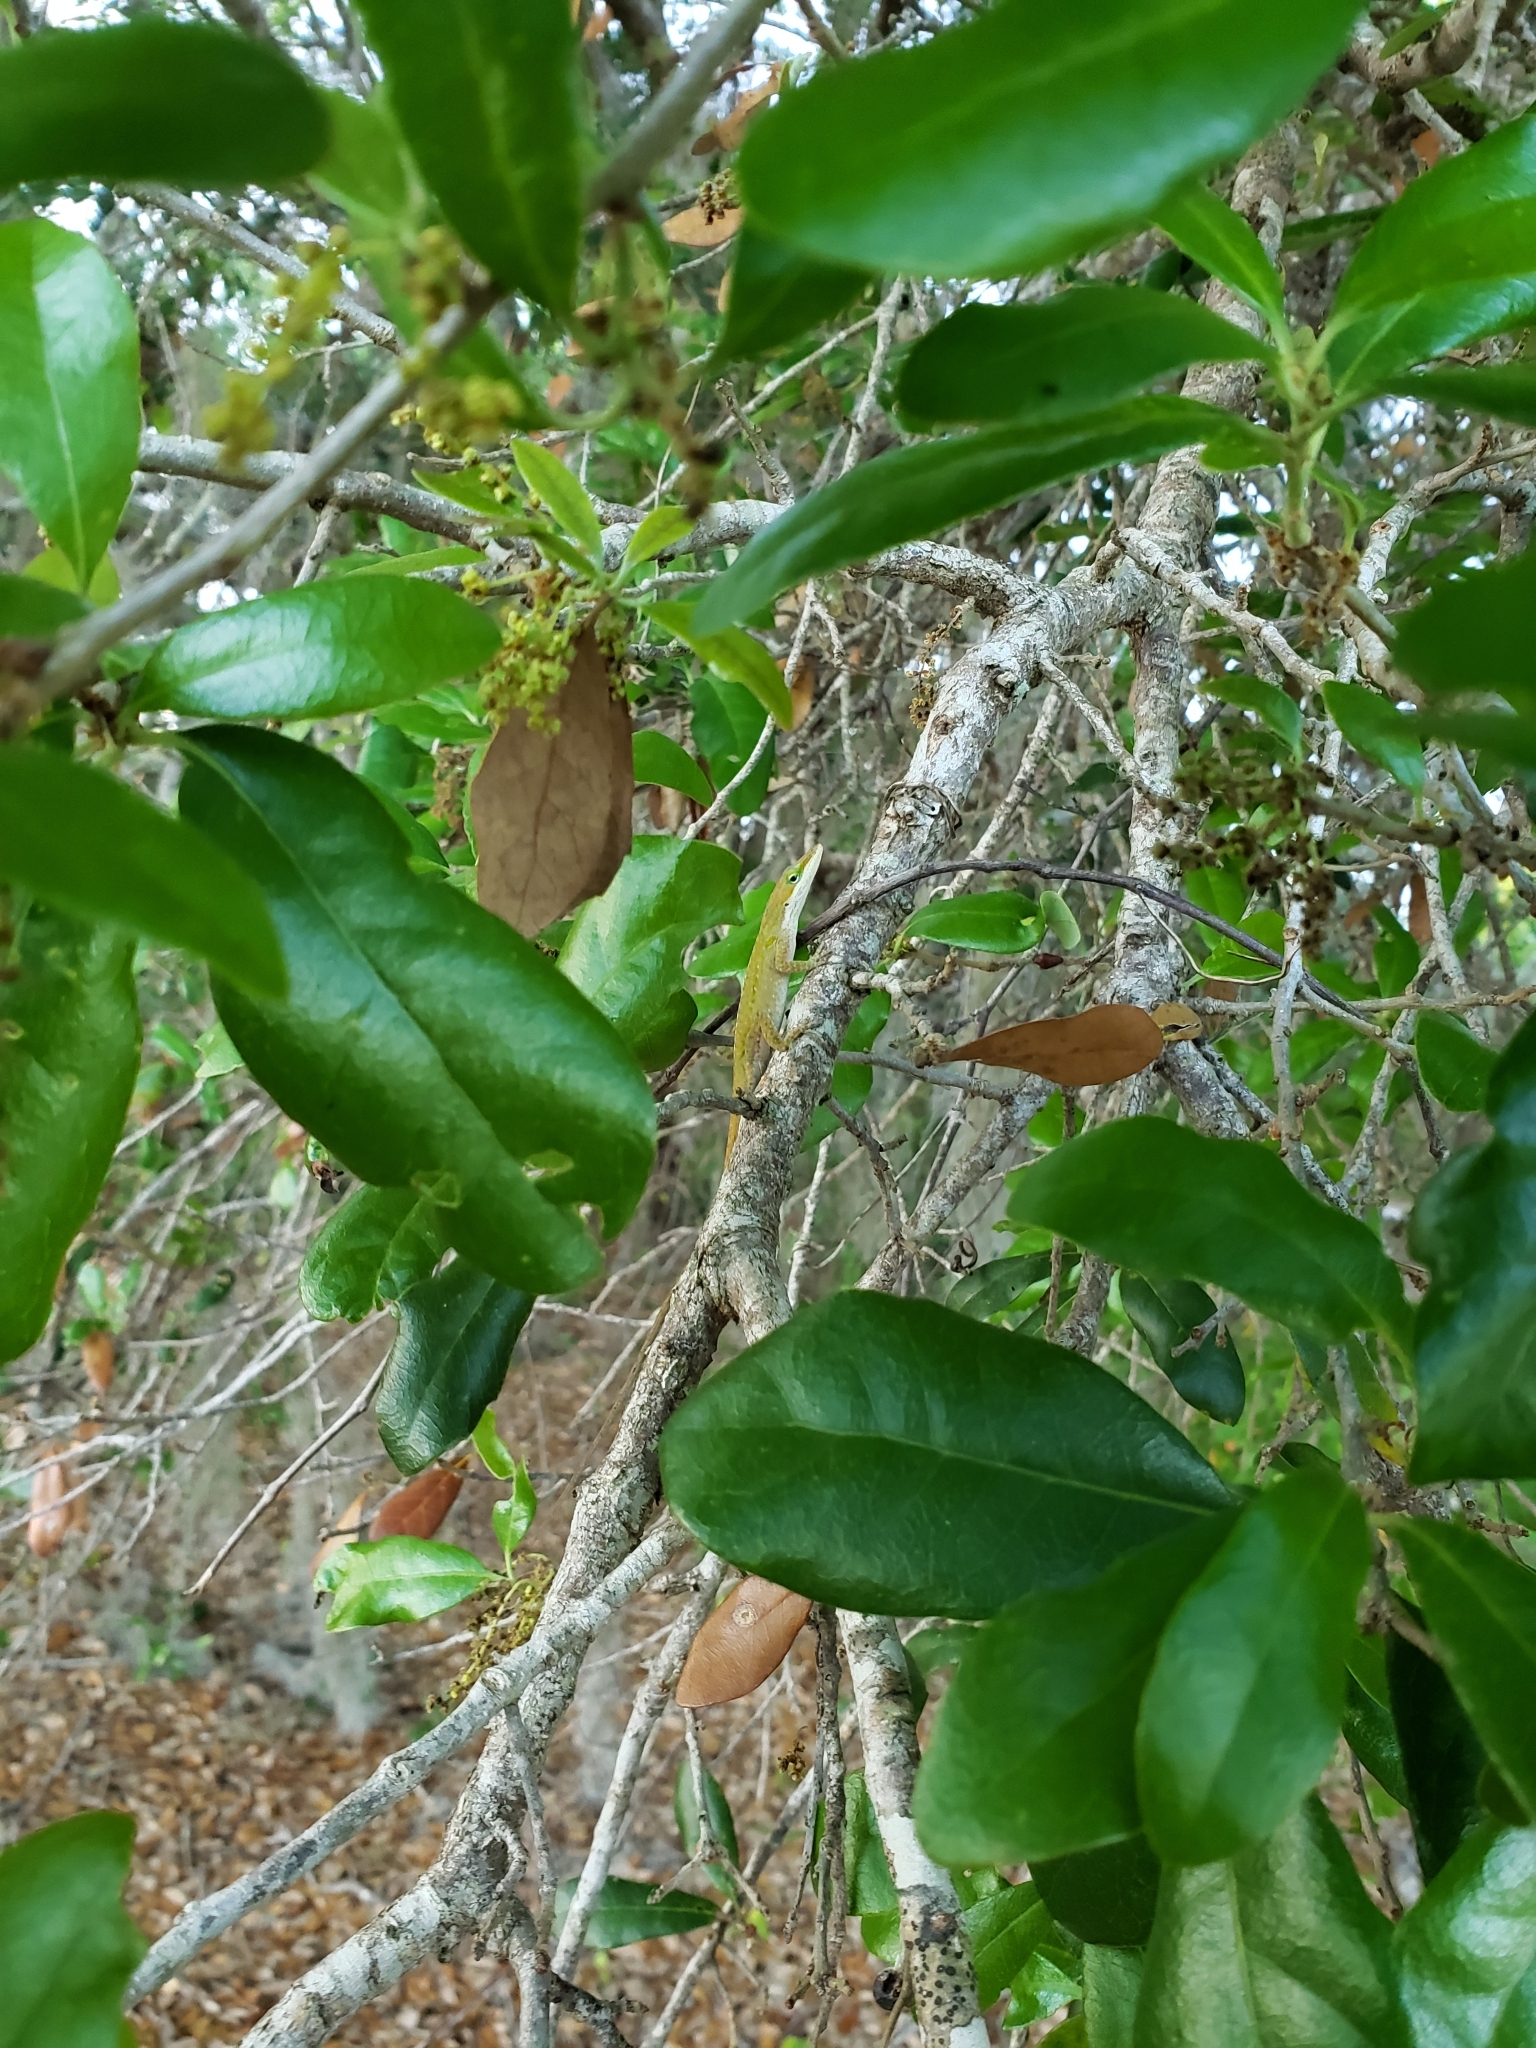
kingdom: Animalia
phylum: Chordata
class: Squamata
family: Dactyloidae
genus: Anolis
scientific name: Anolis carolinensis
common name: Green anole
